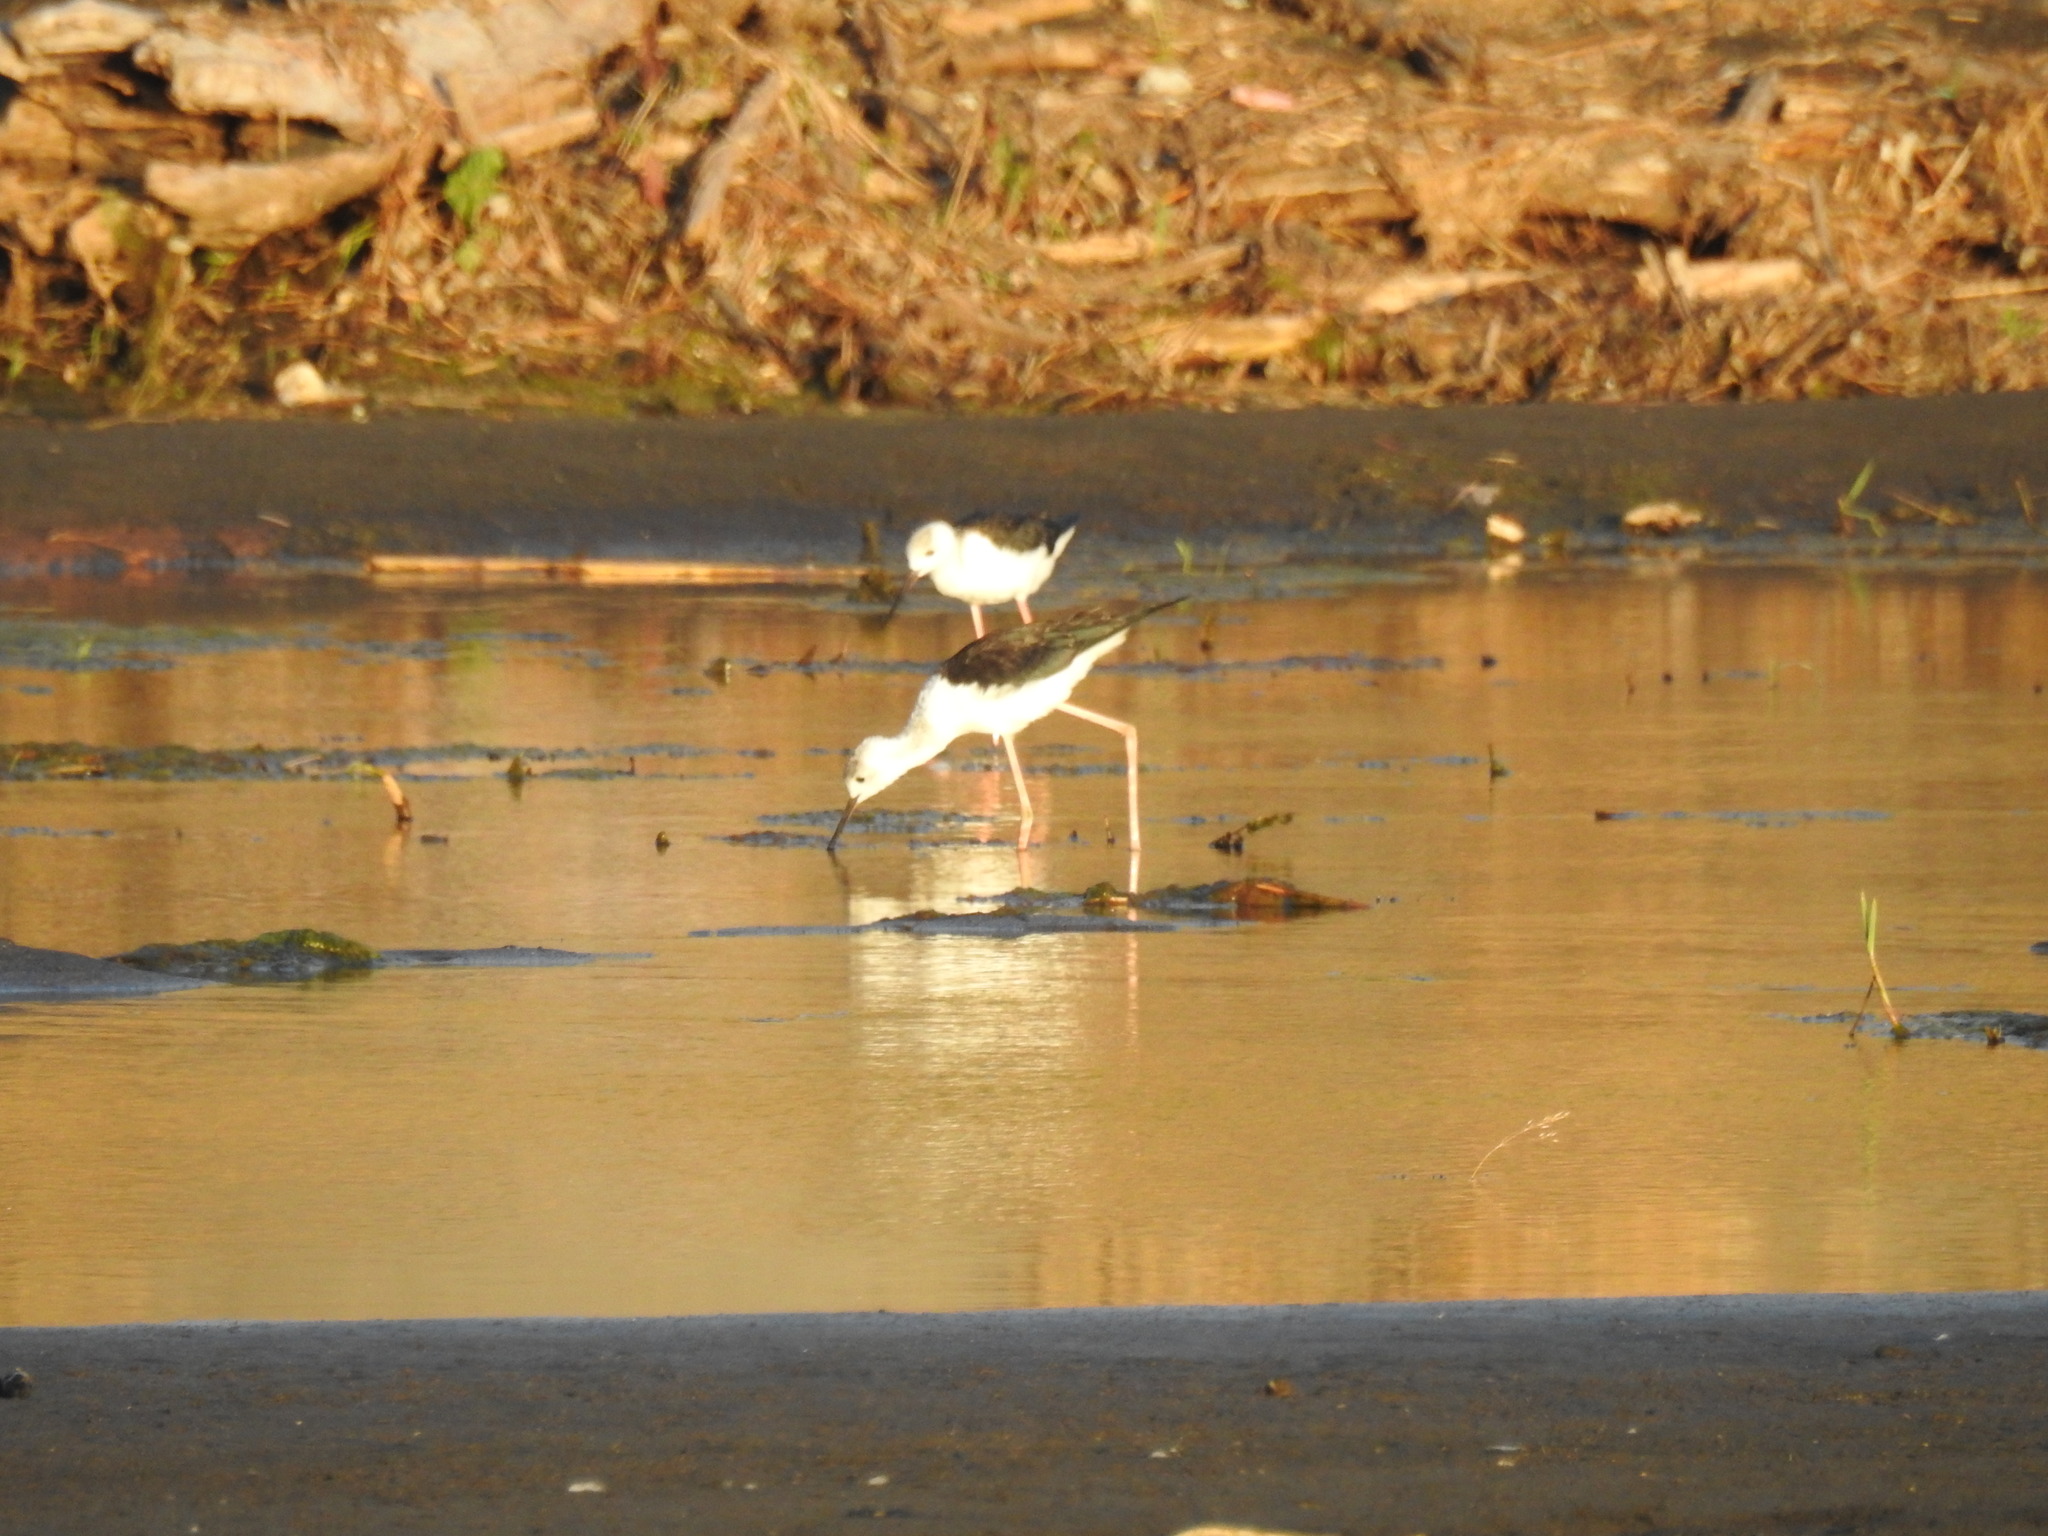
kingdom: Animalia
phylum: Chordata
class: Aves
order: Charadriiformes
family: Recurvirostridae
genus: Himantopus
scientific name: Himantopus leucocephalus
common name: White-headed stilt
